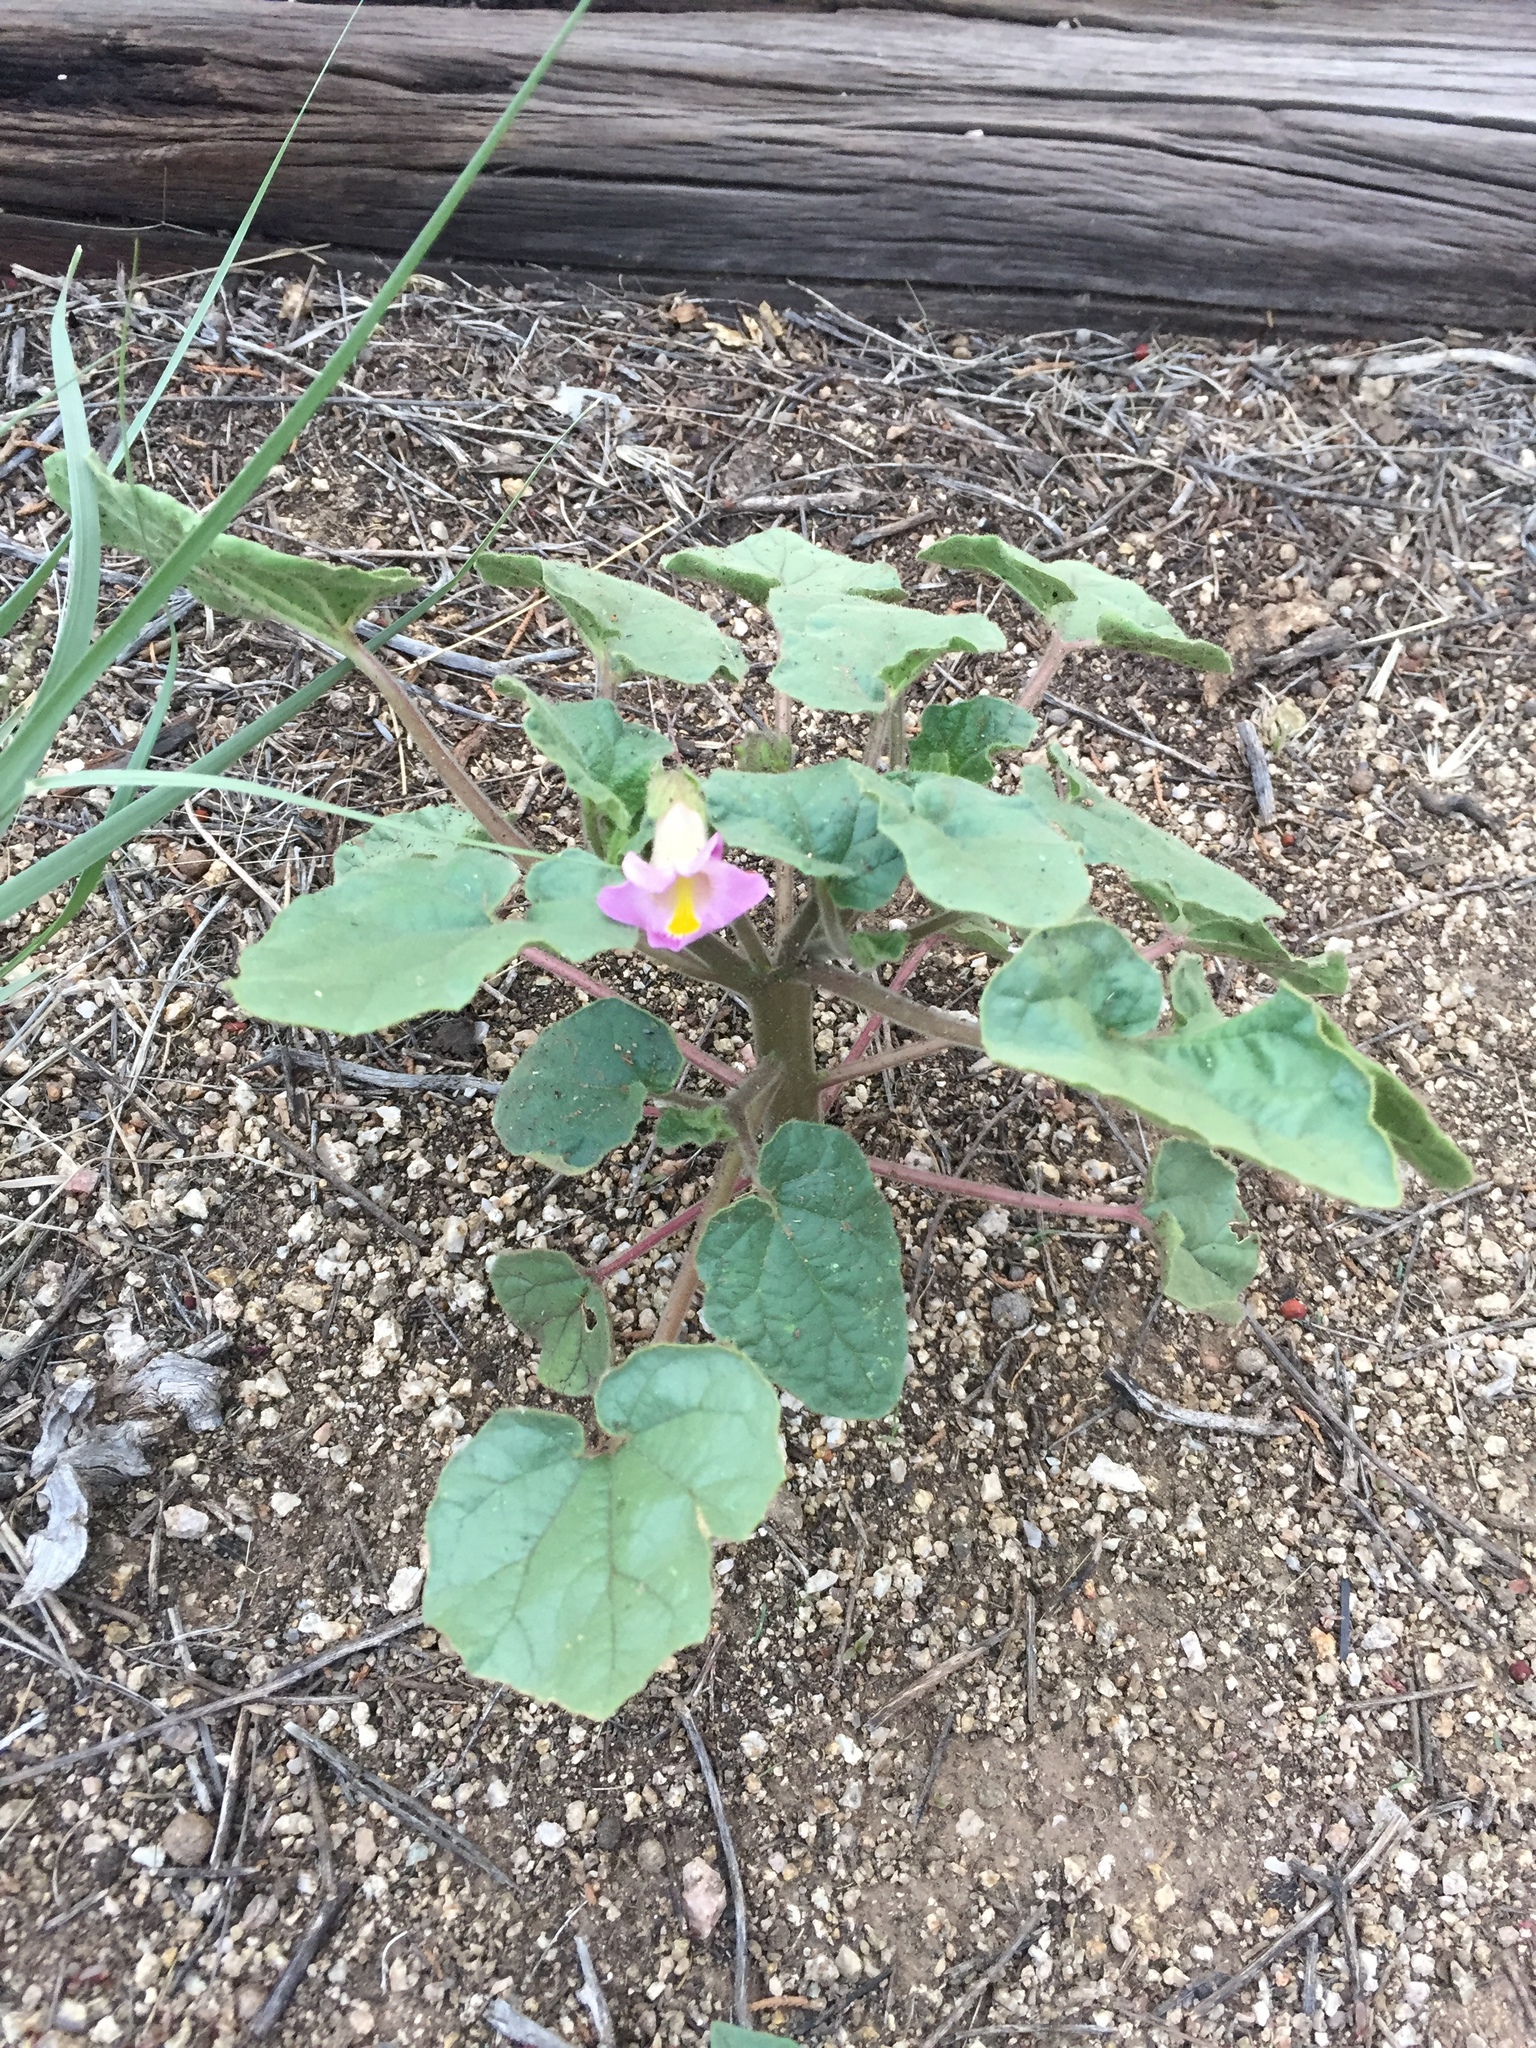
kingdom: Plantae
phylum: Tracheophyta
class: Magnoliopsida
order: Lamiales
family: Martyniaceae
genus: Proboscidea
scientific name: Proboscidea parviflora
